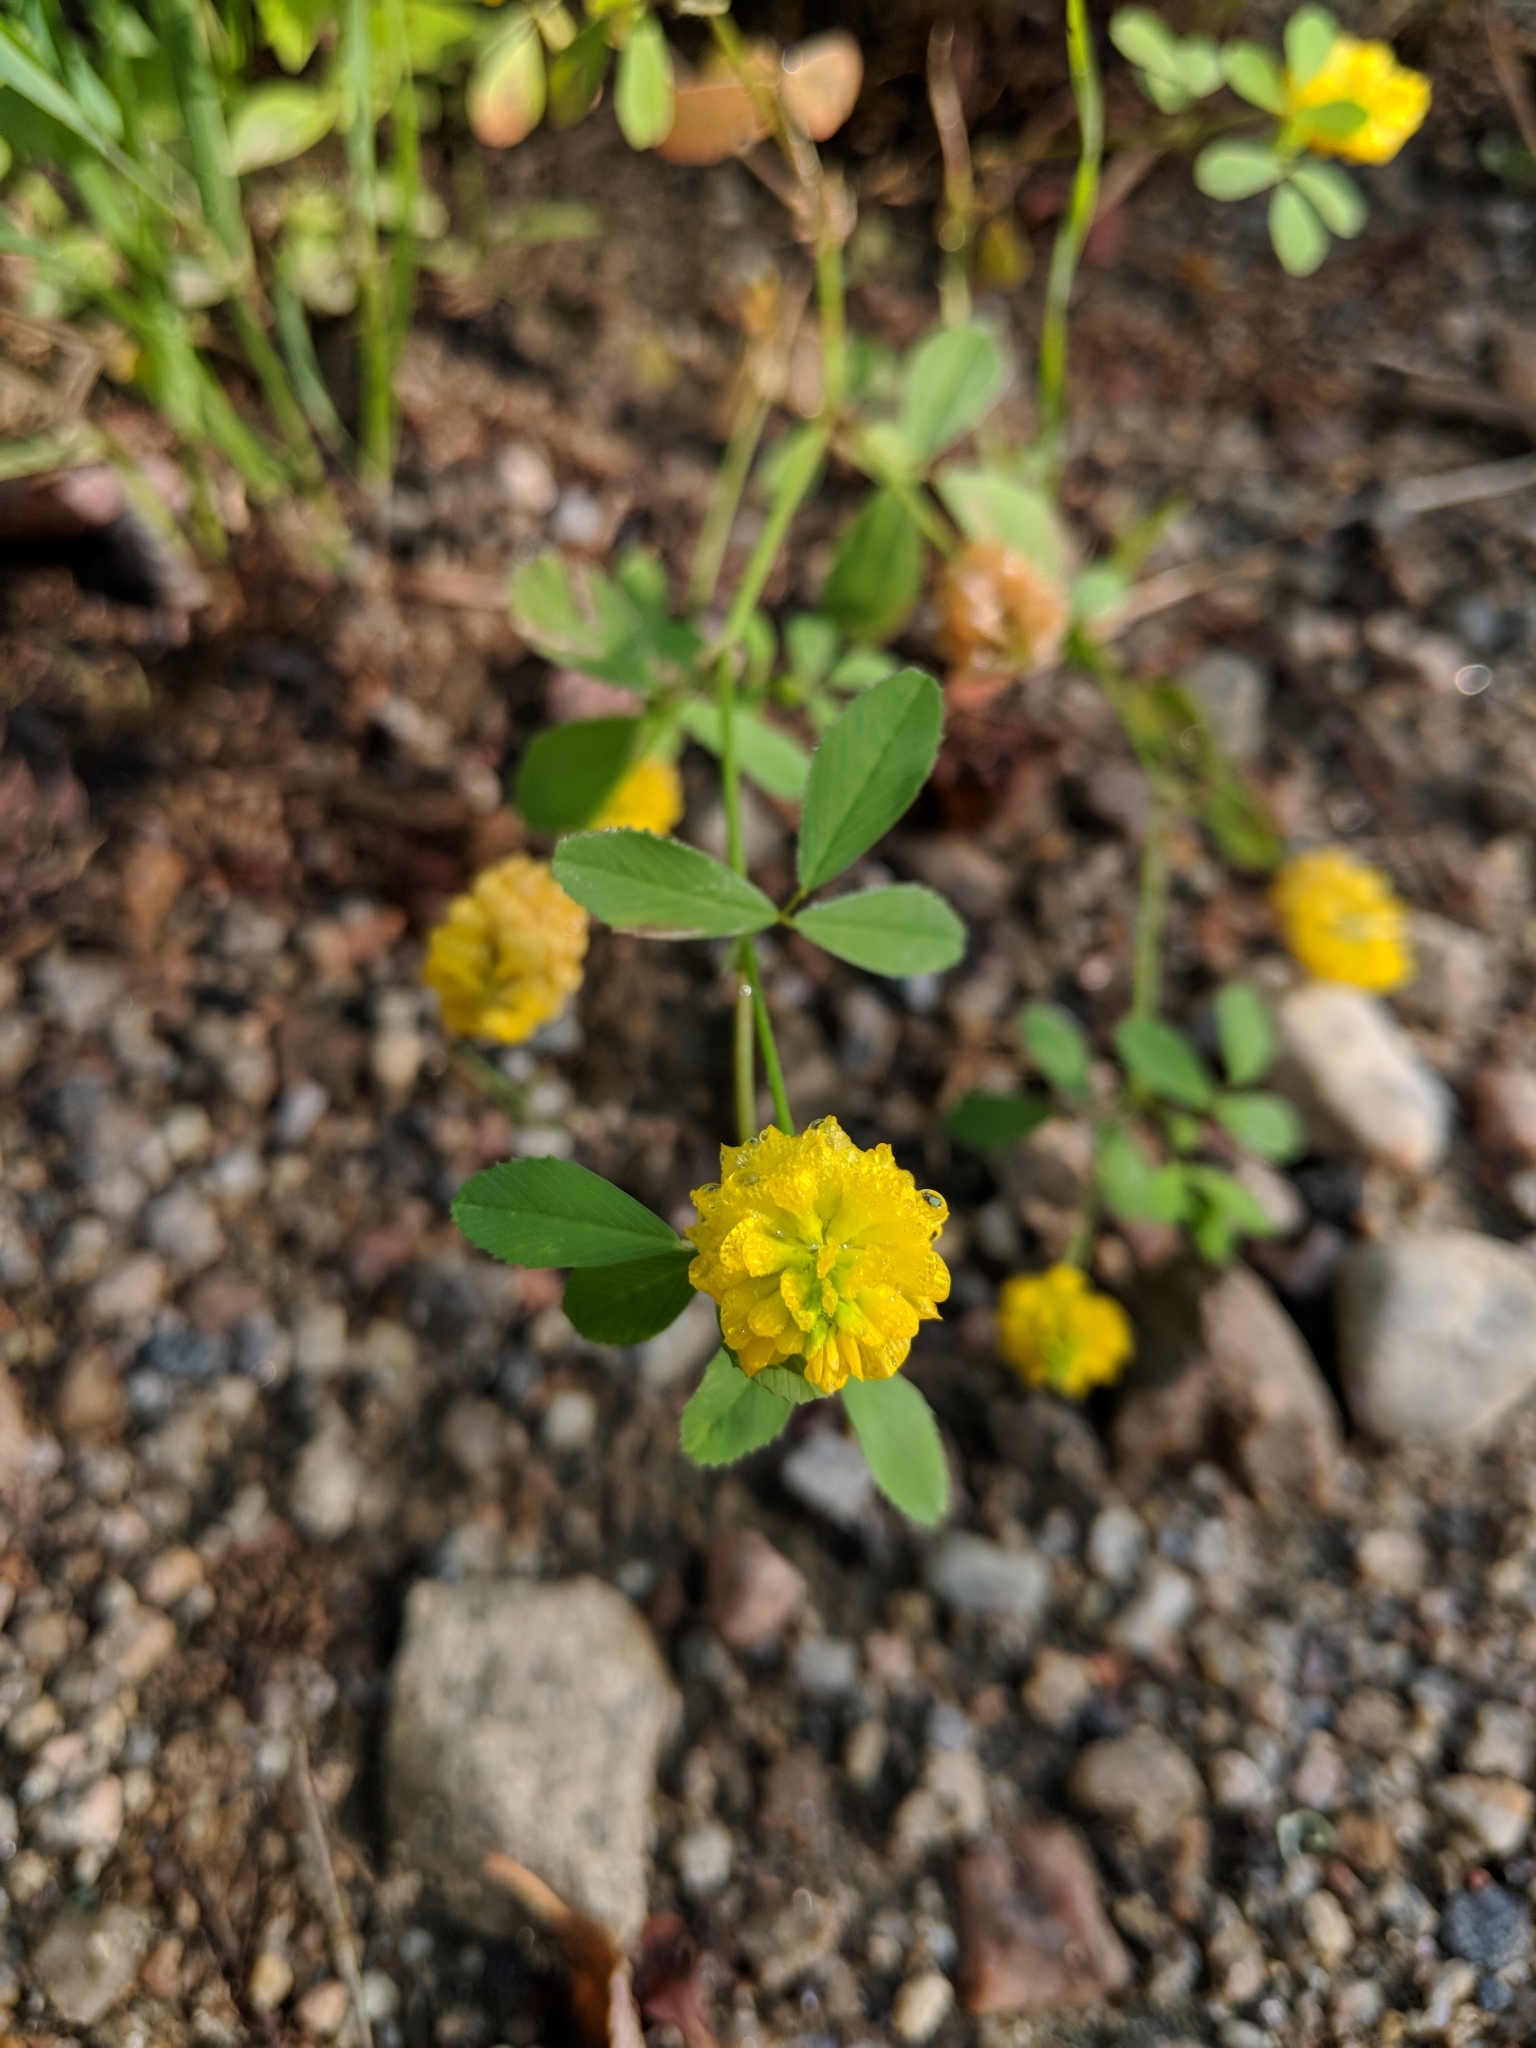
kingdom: Plantae
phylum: Tracheophyta
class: Magnoliopsida
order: Fabales
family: Fabaceae
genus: Trifolium
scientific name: Trifolium campestre
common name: Field clover
